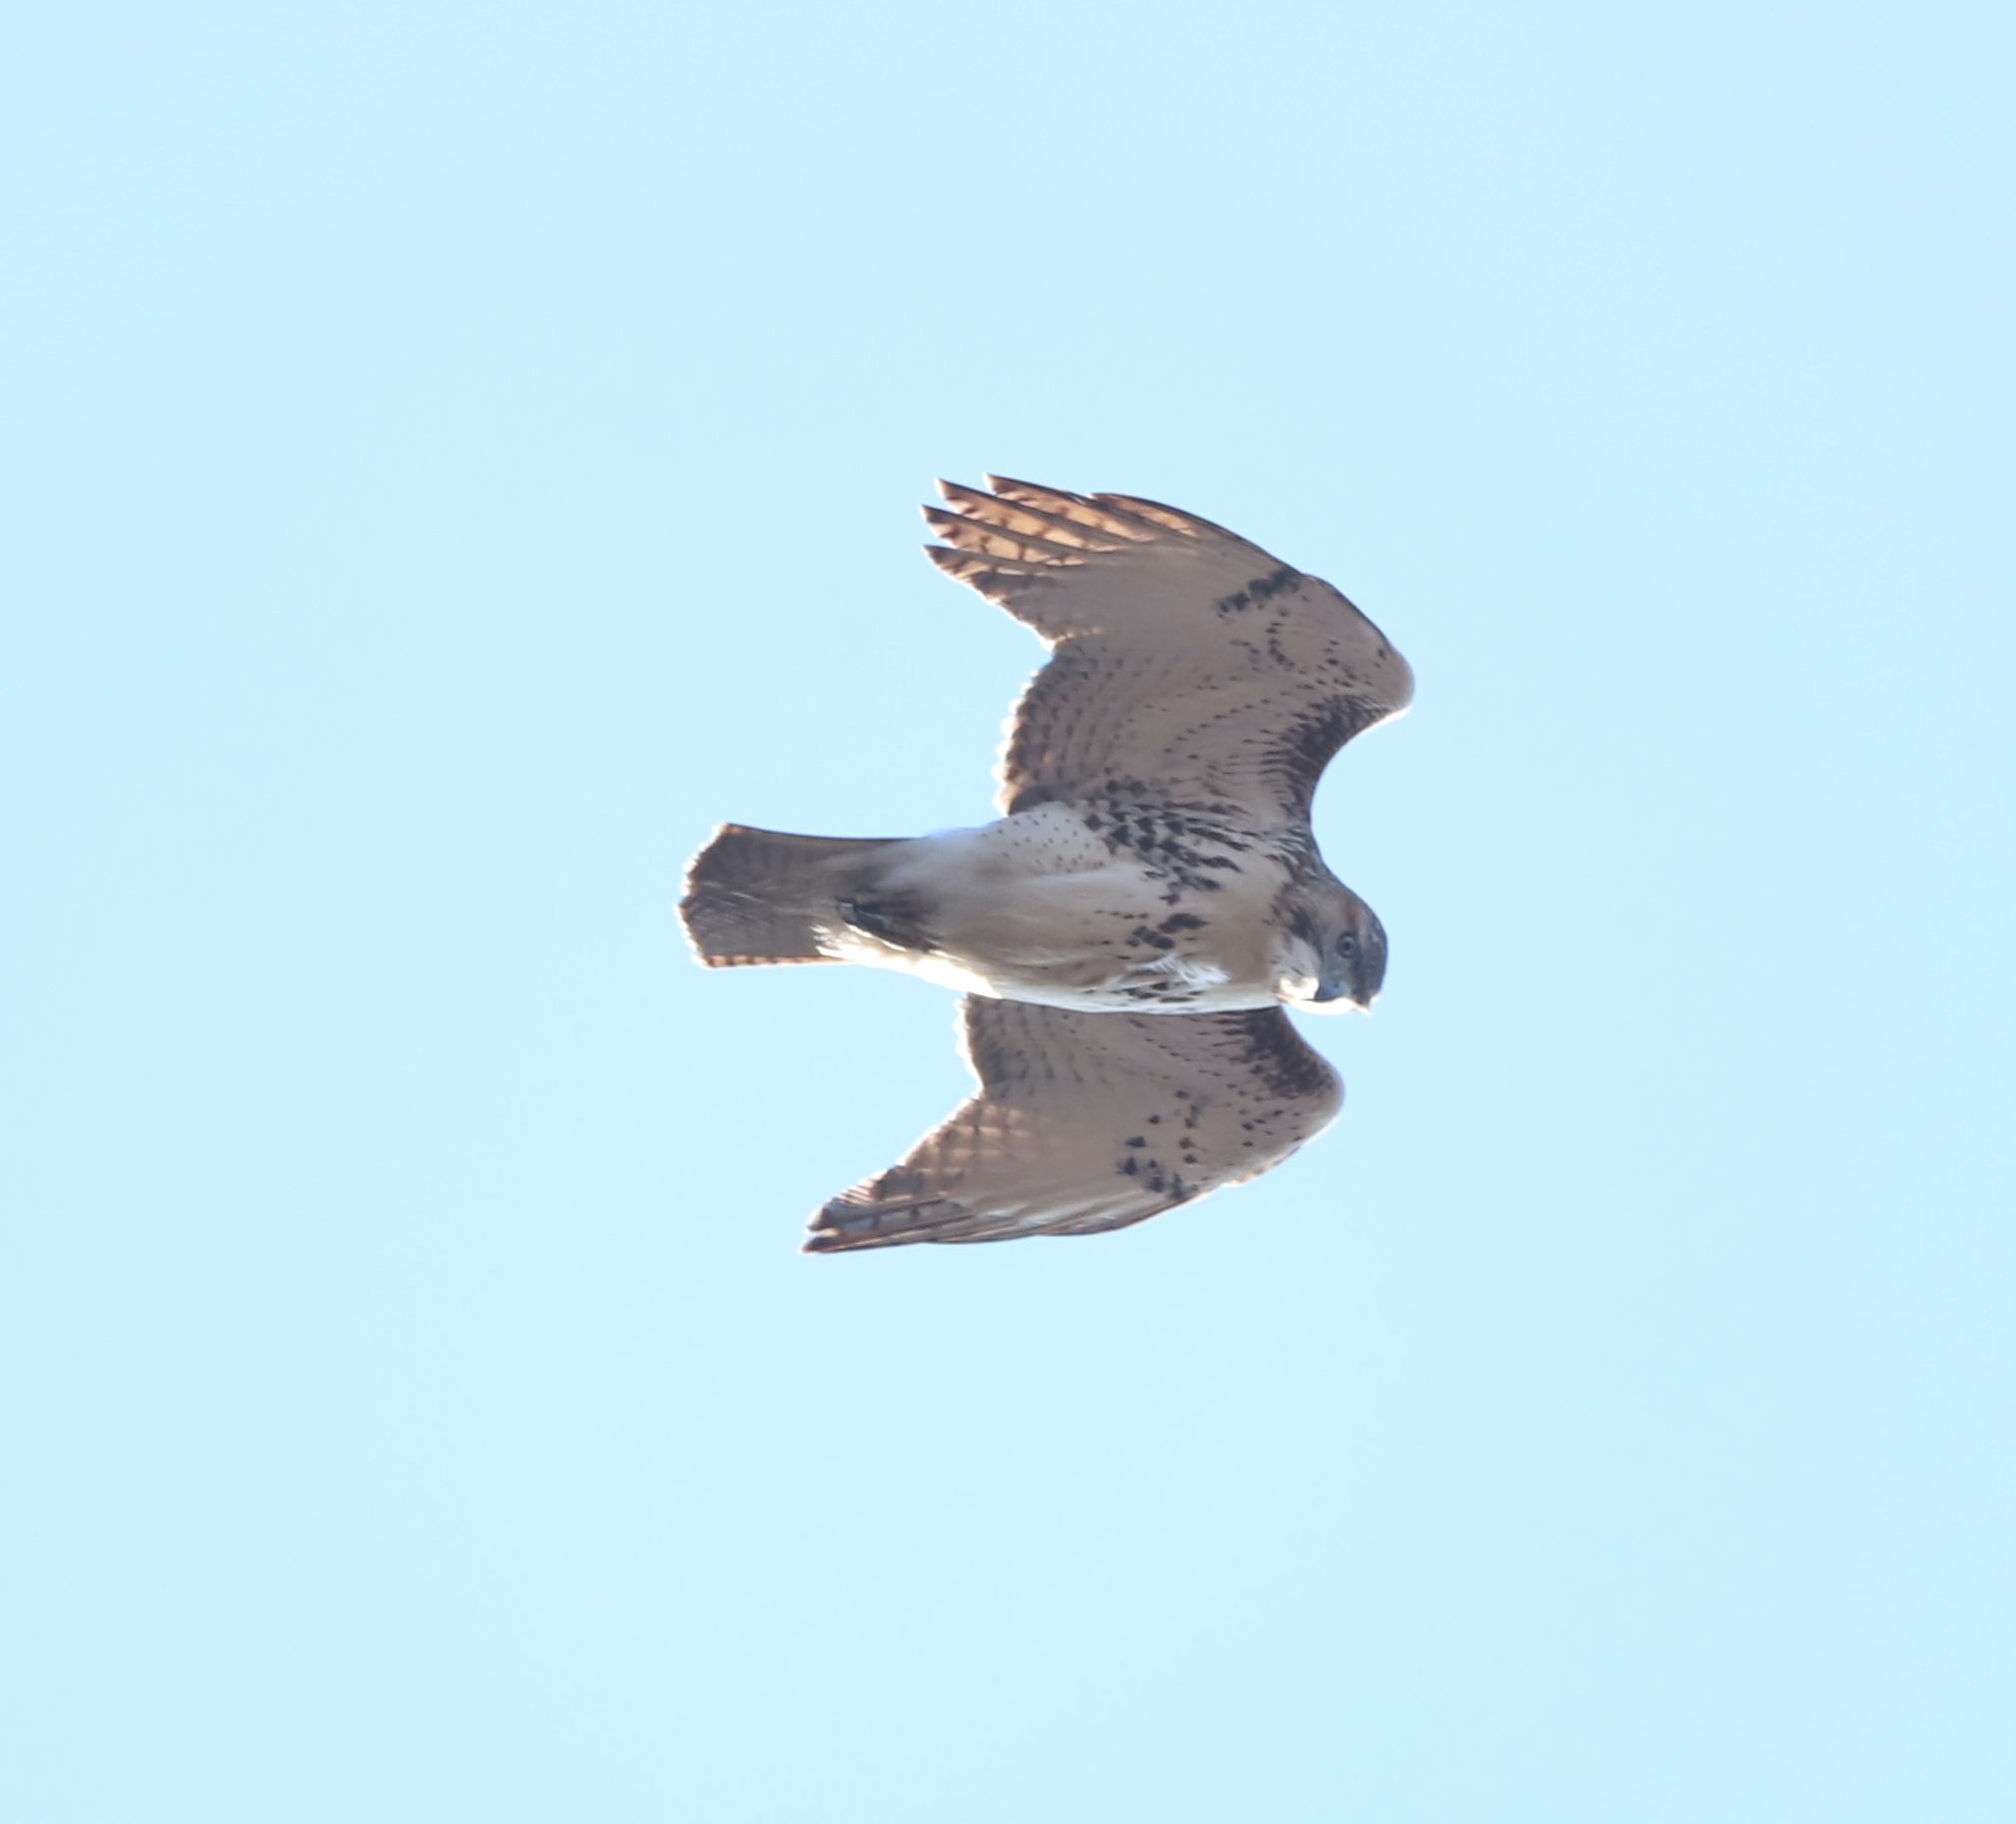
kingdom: Animalia
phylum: Chordata
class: Aves
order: Accipitriformes
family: Accipitridae
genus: Buteo
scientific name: Buteo jamaicensis
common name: Red-tailed hawk
